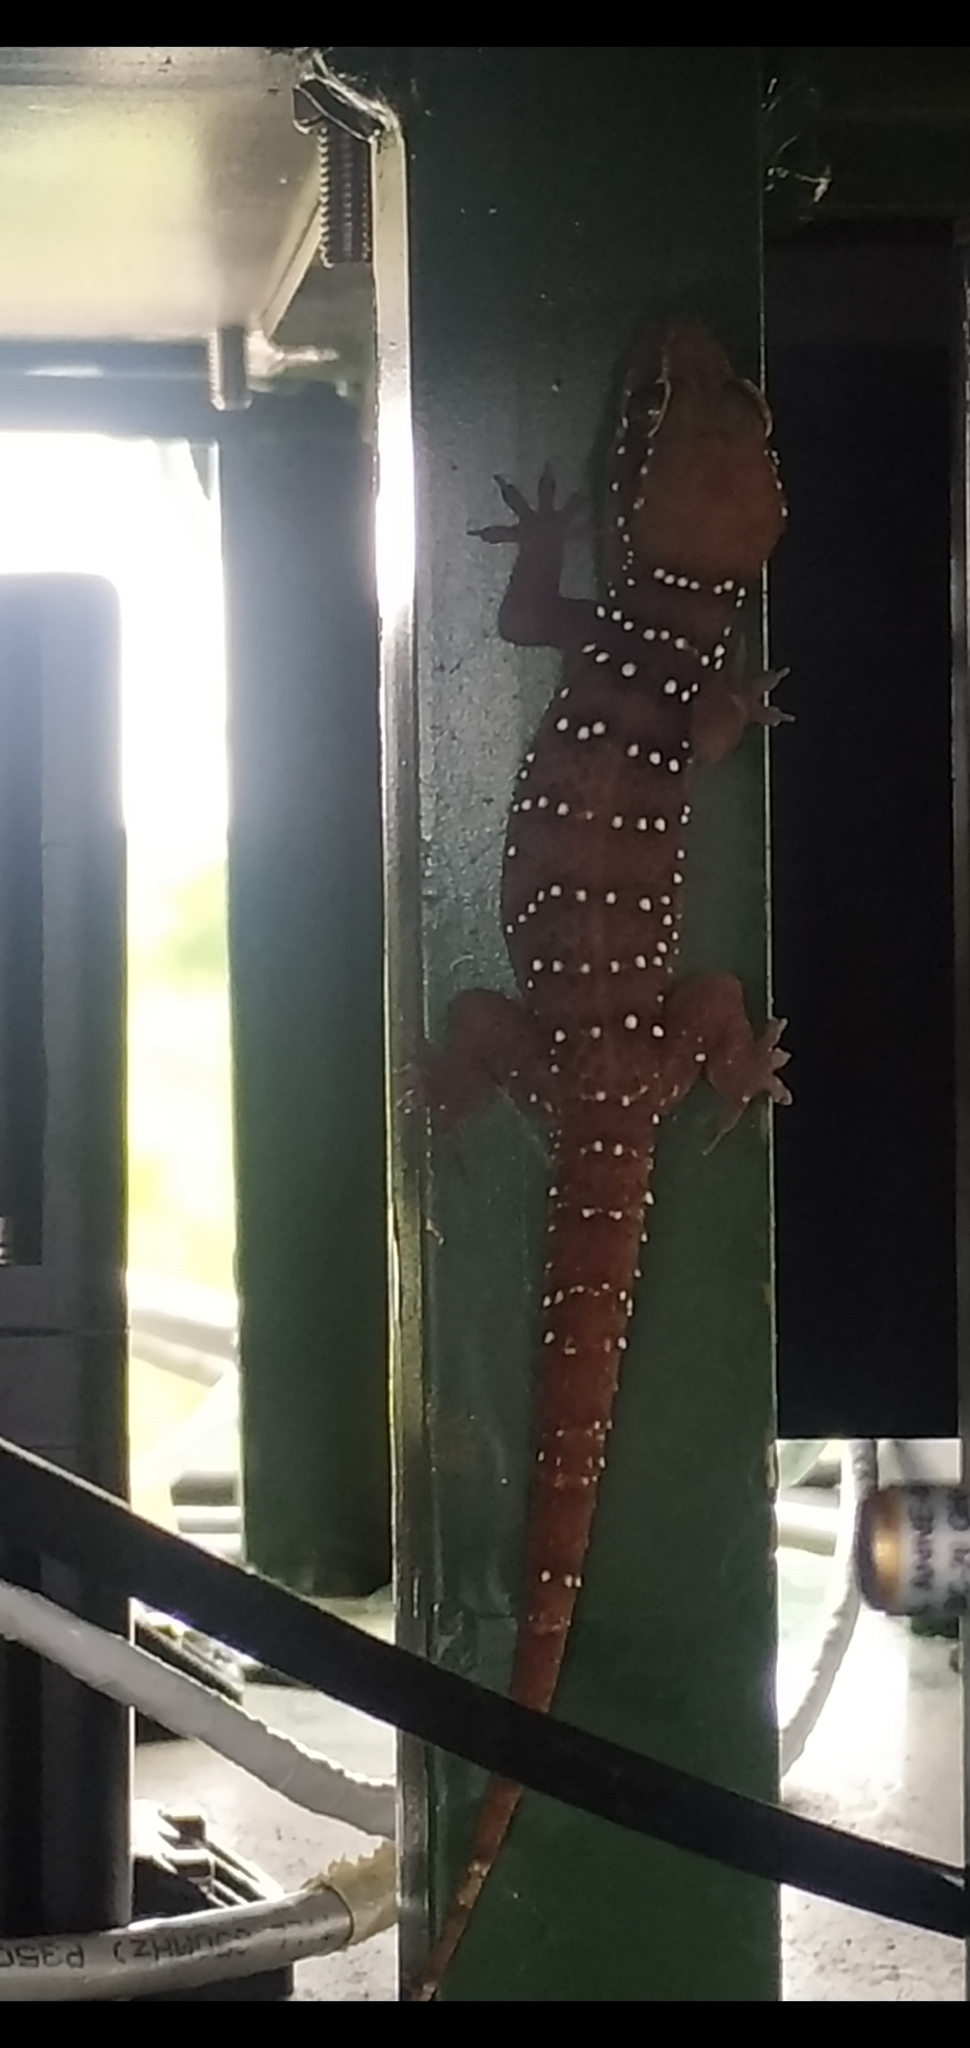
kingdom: Animalia
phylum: Chordata
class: Squamata
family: Gekkonidae
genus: Hemidactylus
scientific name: Hemidactylus whitakeri
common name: Whitaker’s termite hill gecko
